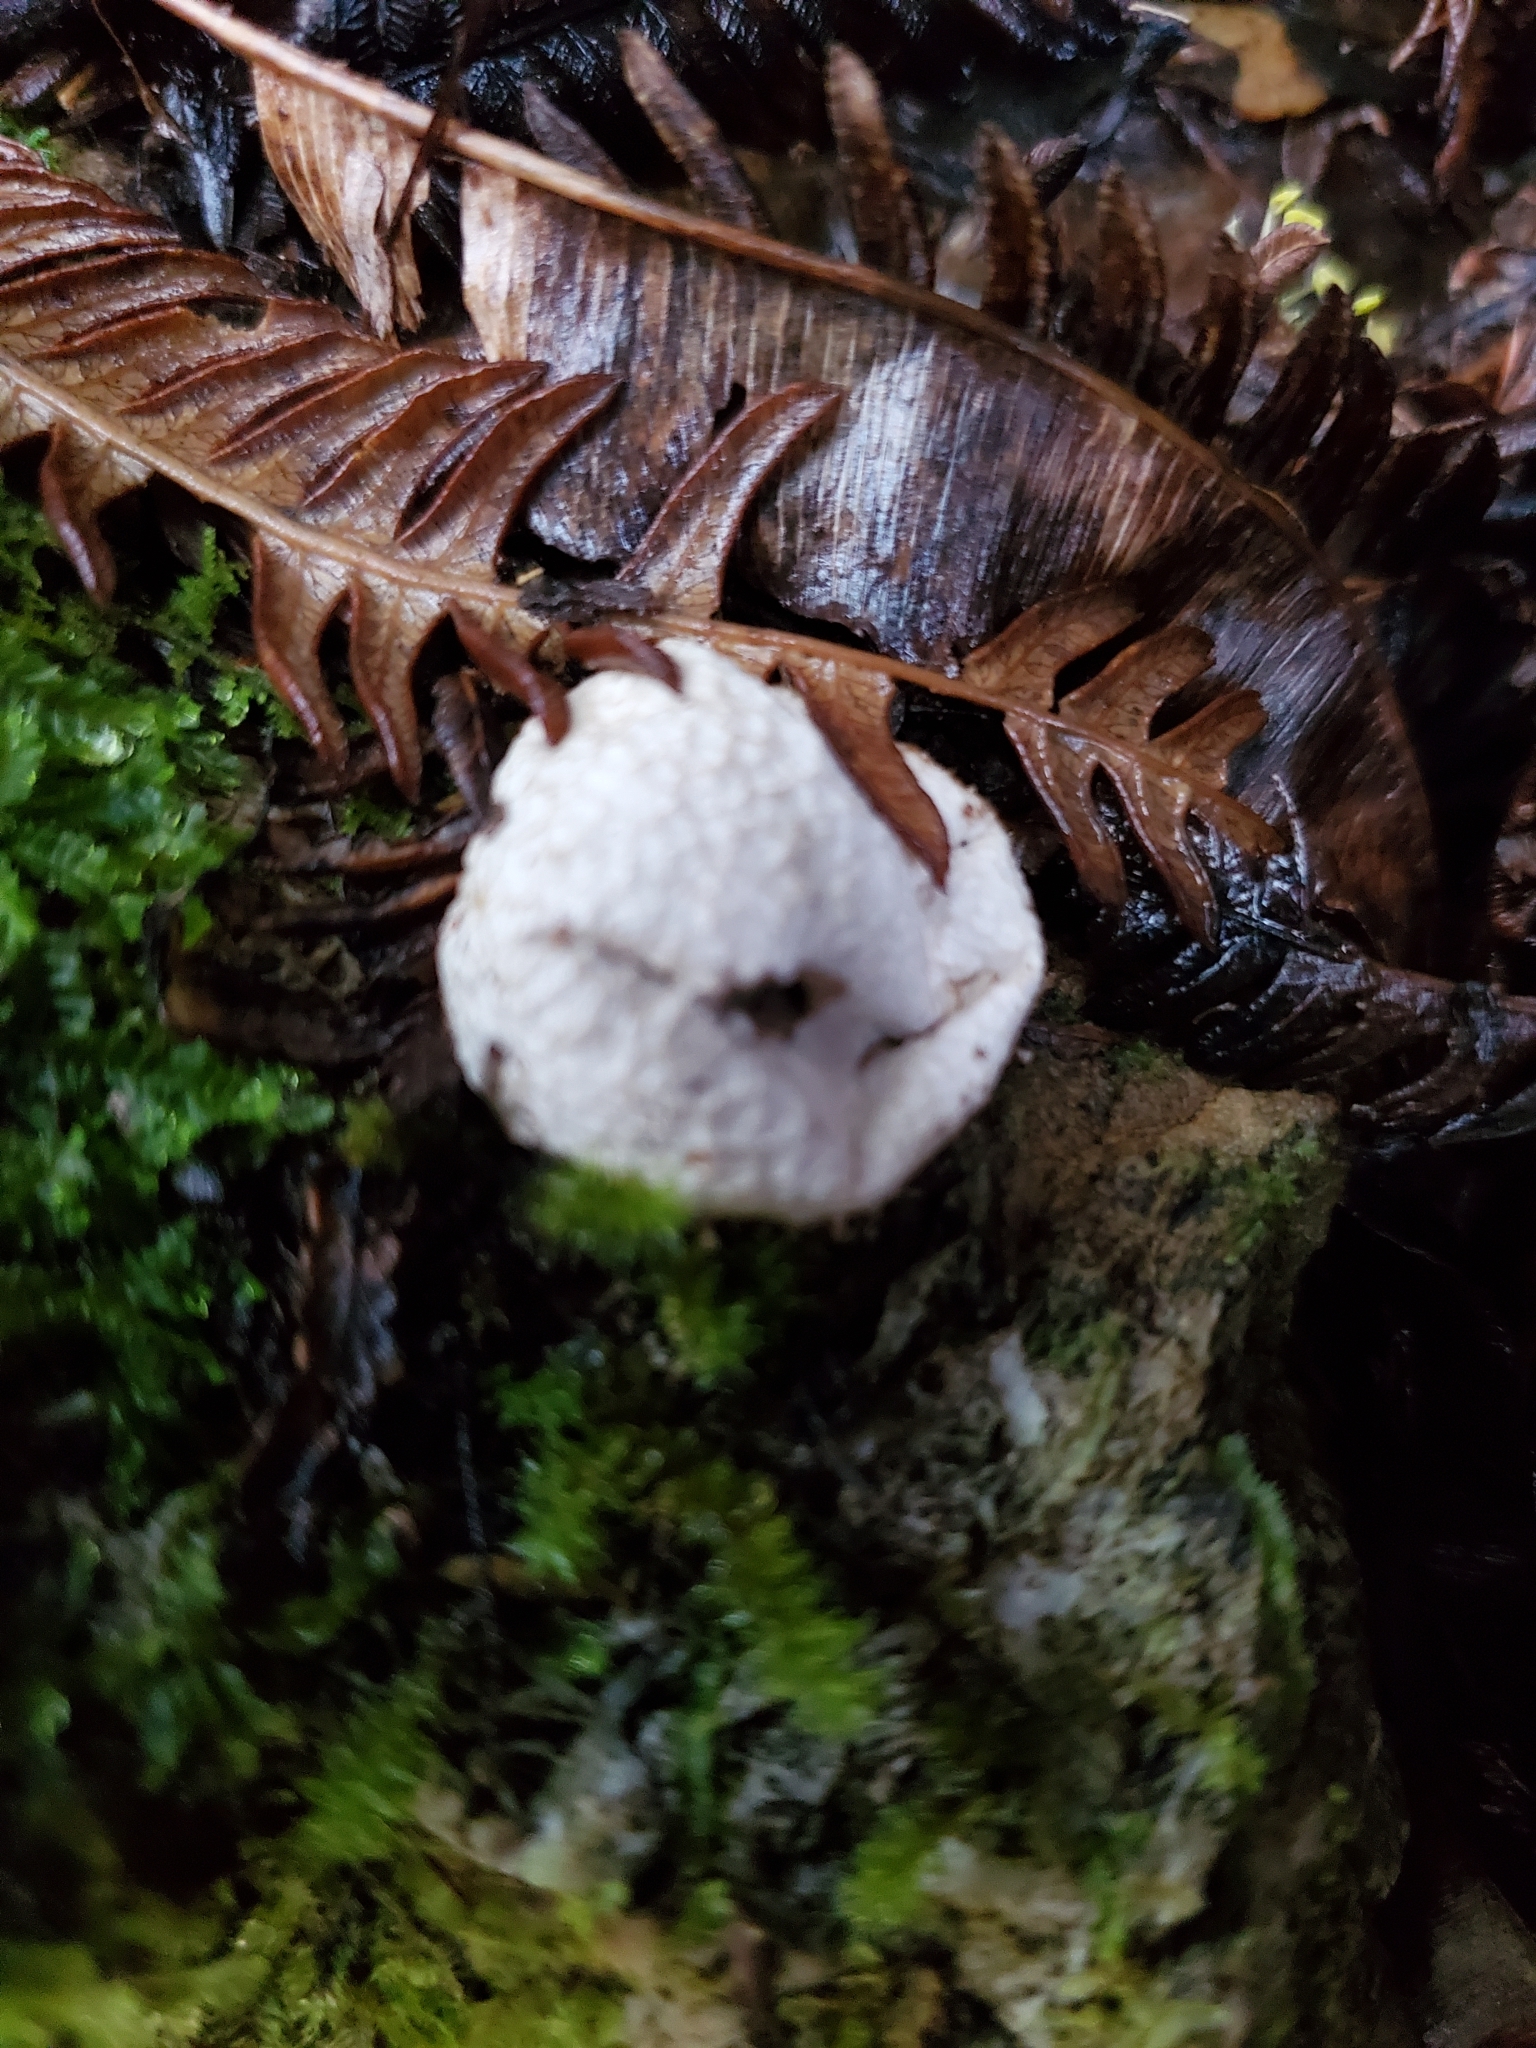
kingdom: Fungi
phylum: Basidiomycota
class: Agaricomycetes
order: Agaricales
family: Lycoperdaceae
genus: Lycoperdon
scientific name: Lycoperdon compactum
